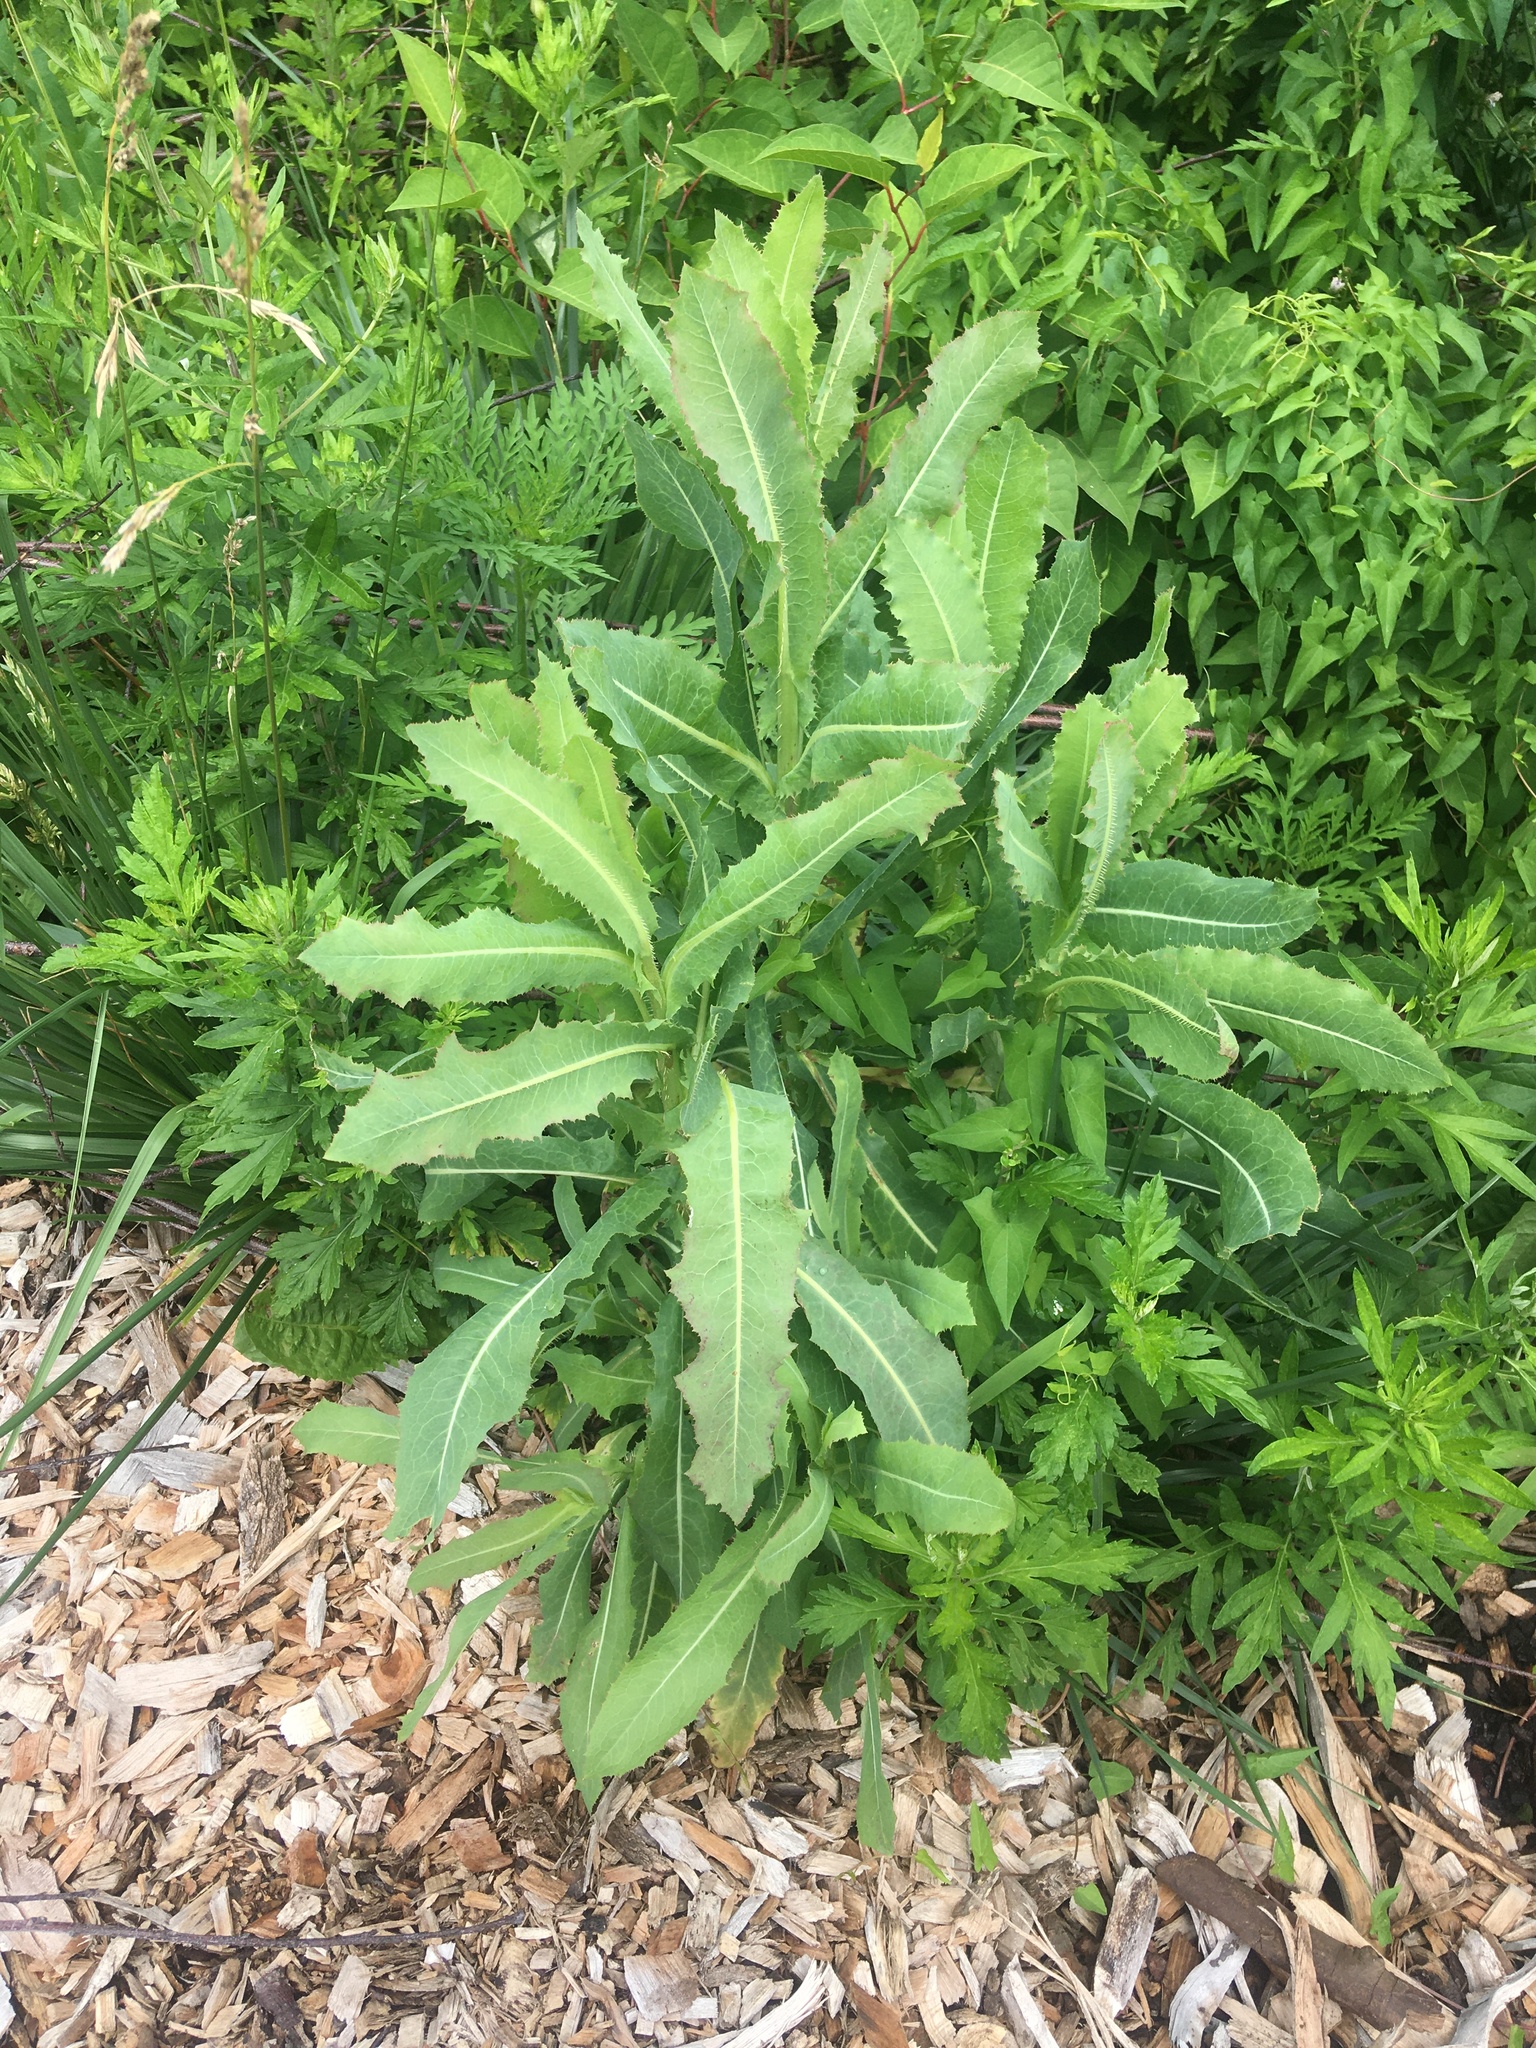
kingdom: Plantae
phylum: Tracheophyta
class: Magnoliopsida
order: Asterales
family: Asteraceae
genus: Lactuca
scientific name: Lactuca serriola
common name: Prickly lettuce
